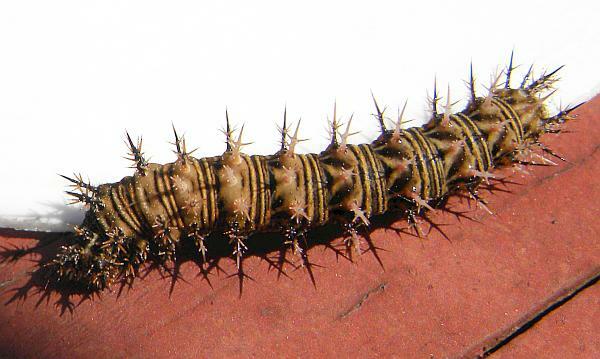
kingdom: Animalia
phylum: Arthropoda
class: Insecta
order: Lepidoptera
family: Nymphalidae
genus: Polygonia
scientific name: Polygonia progne
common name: Gray comma
